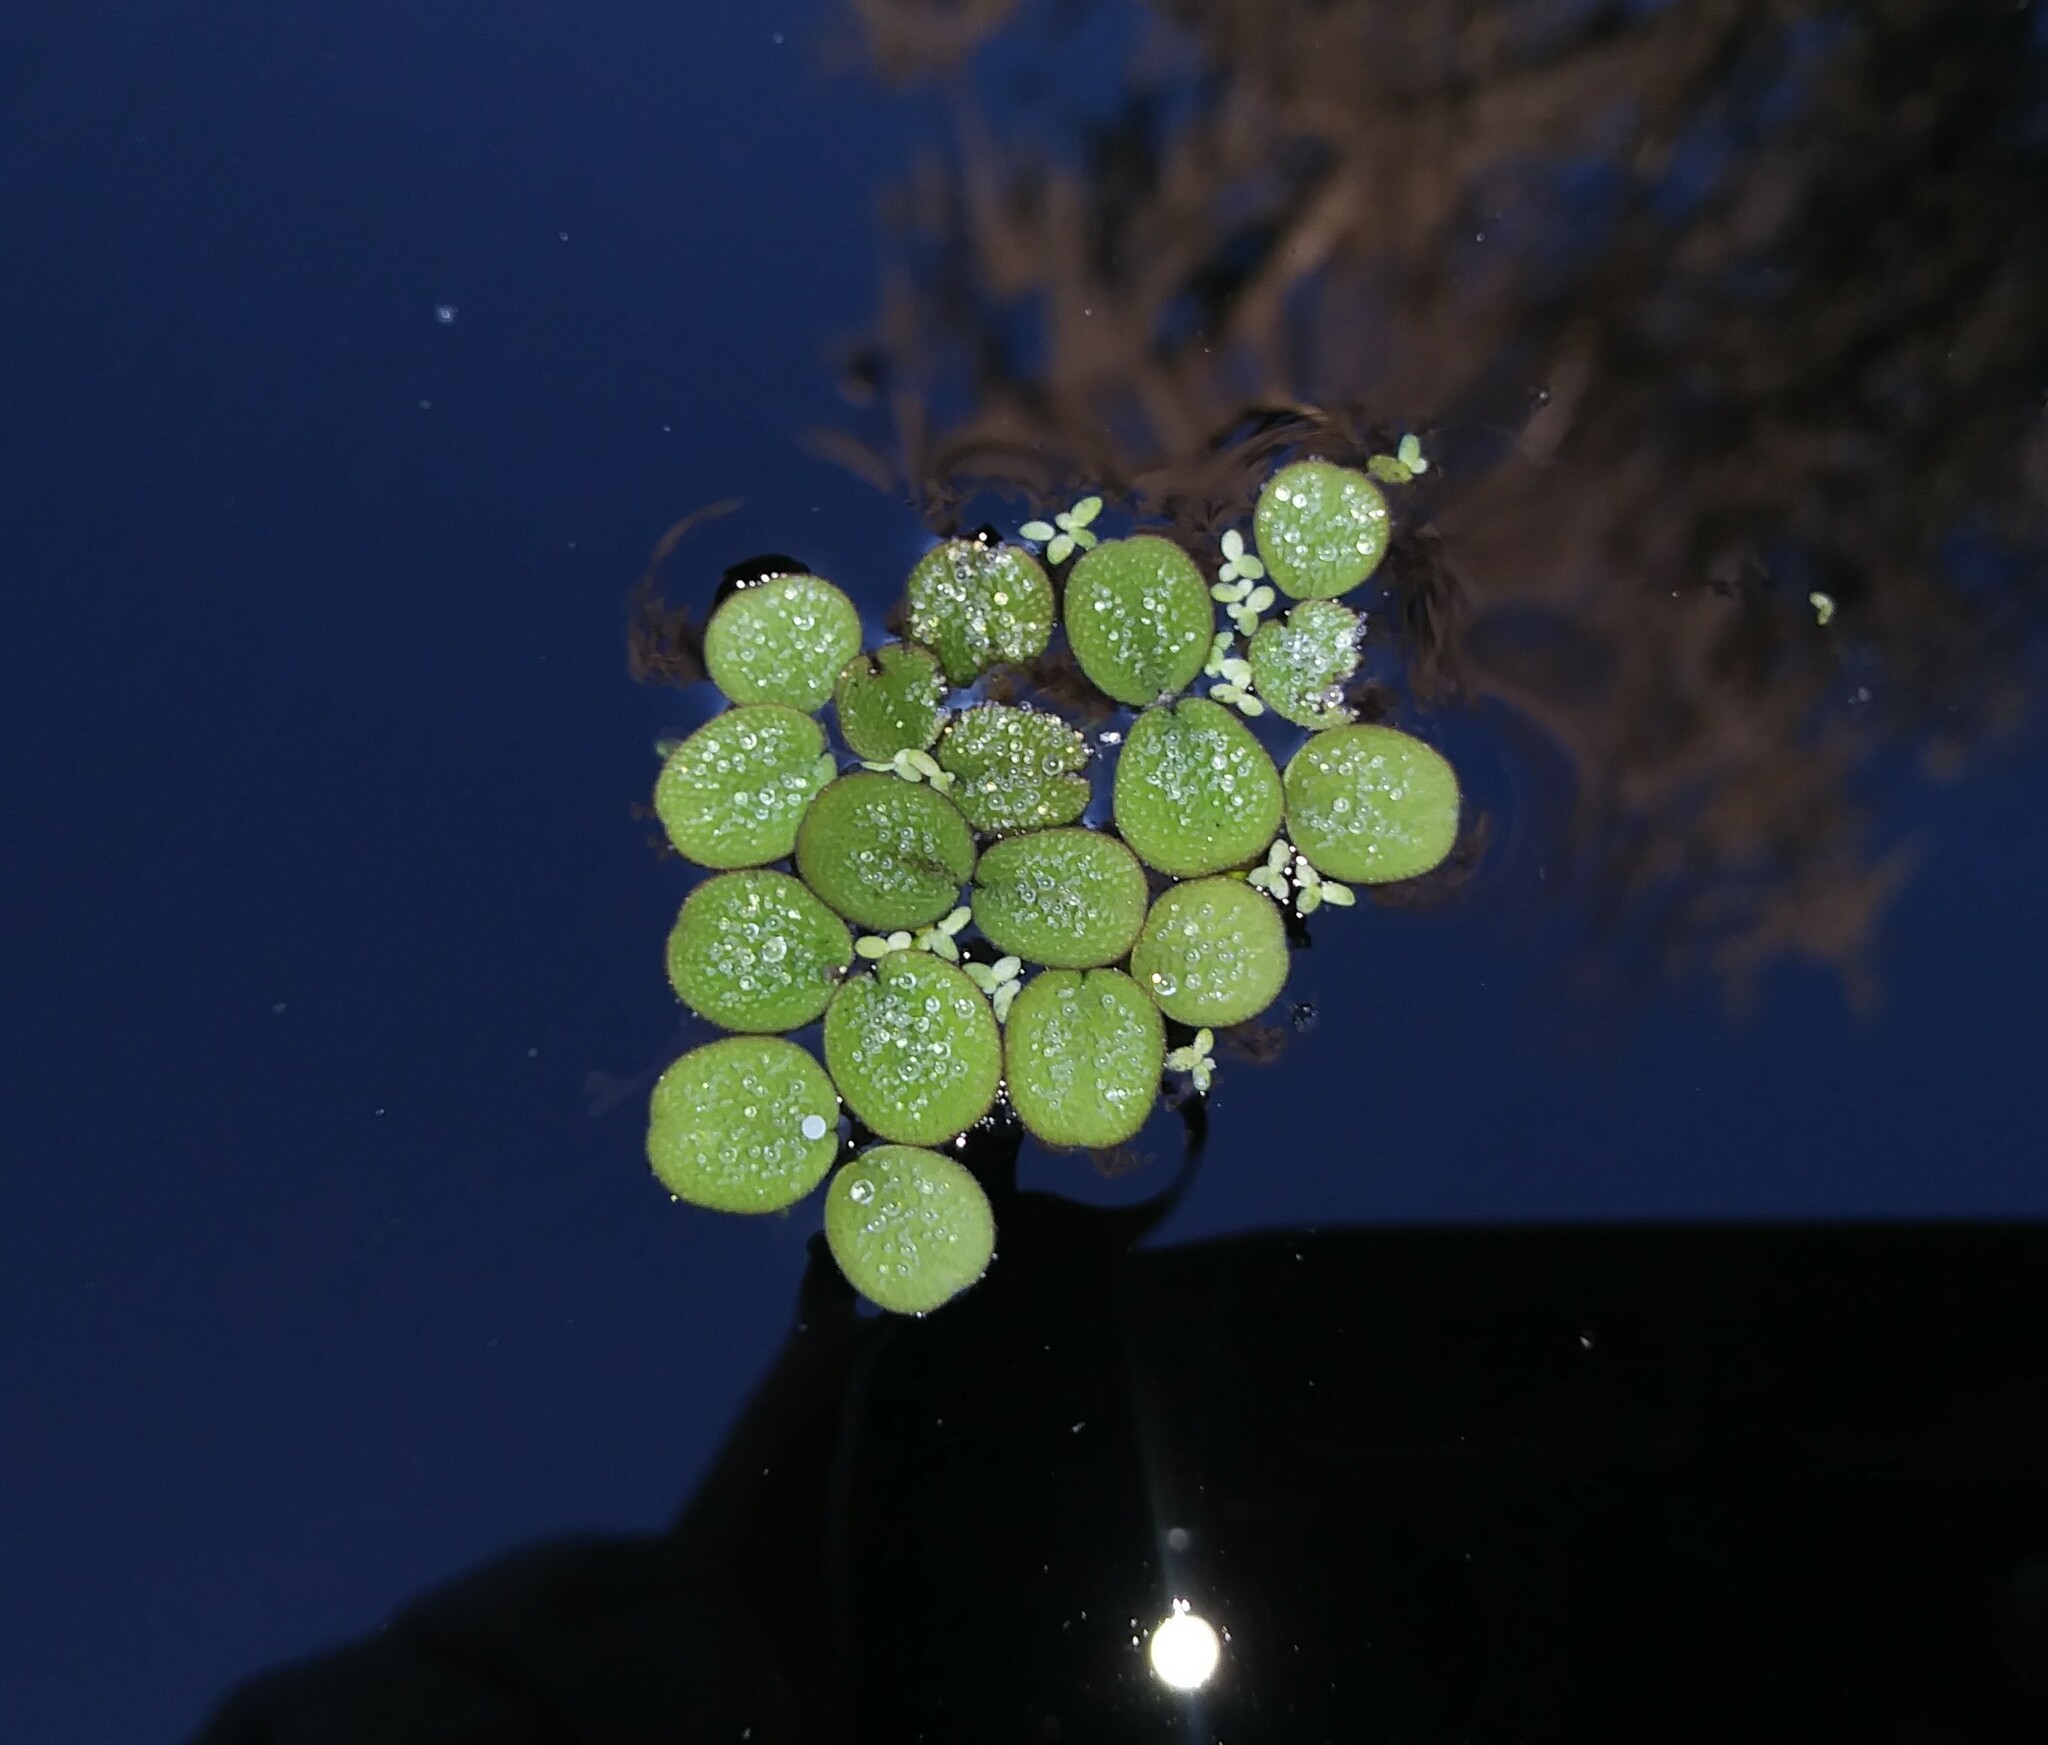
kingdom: Plantae
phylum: Tracheophyta
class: Polypodiopsida
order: Salviniales
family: Salviniaceae
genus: Salvinia
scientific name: Salvinia minima
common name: Water spangles
